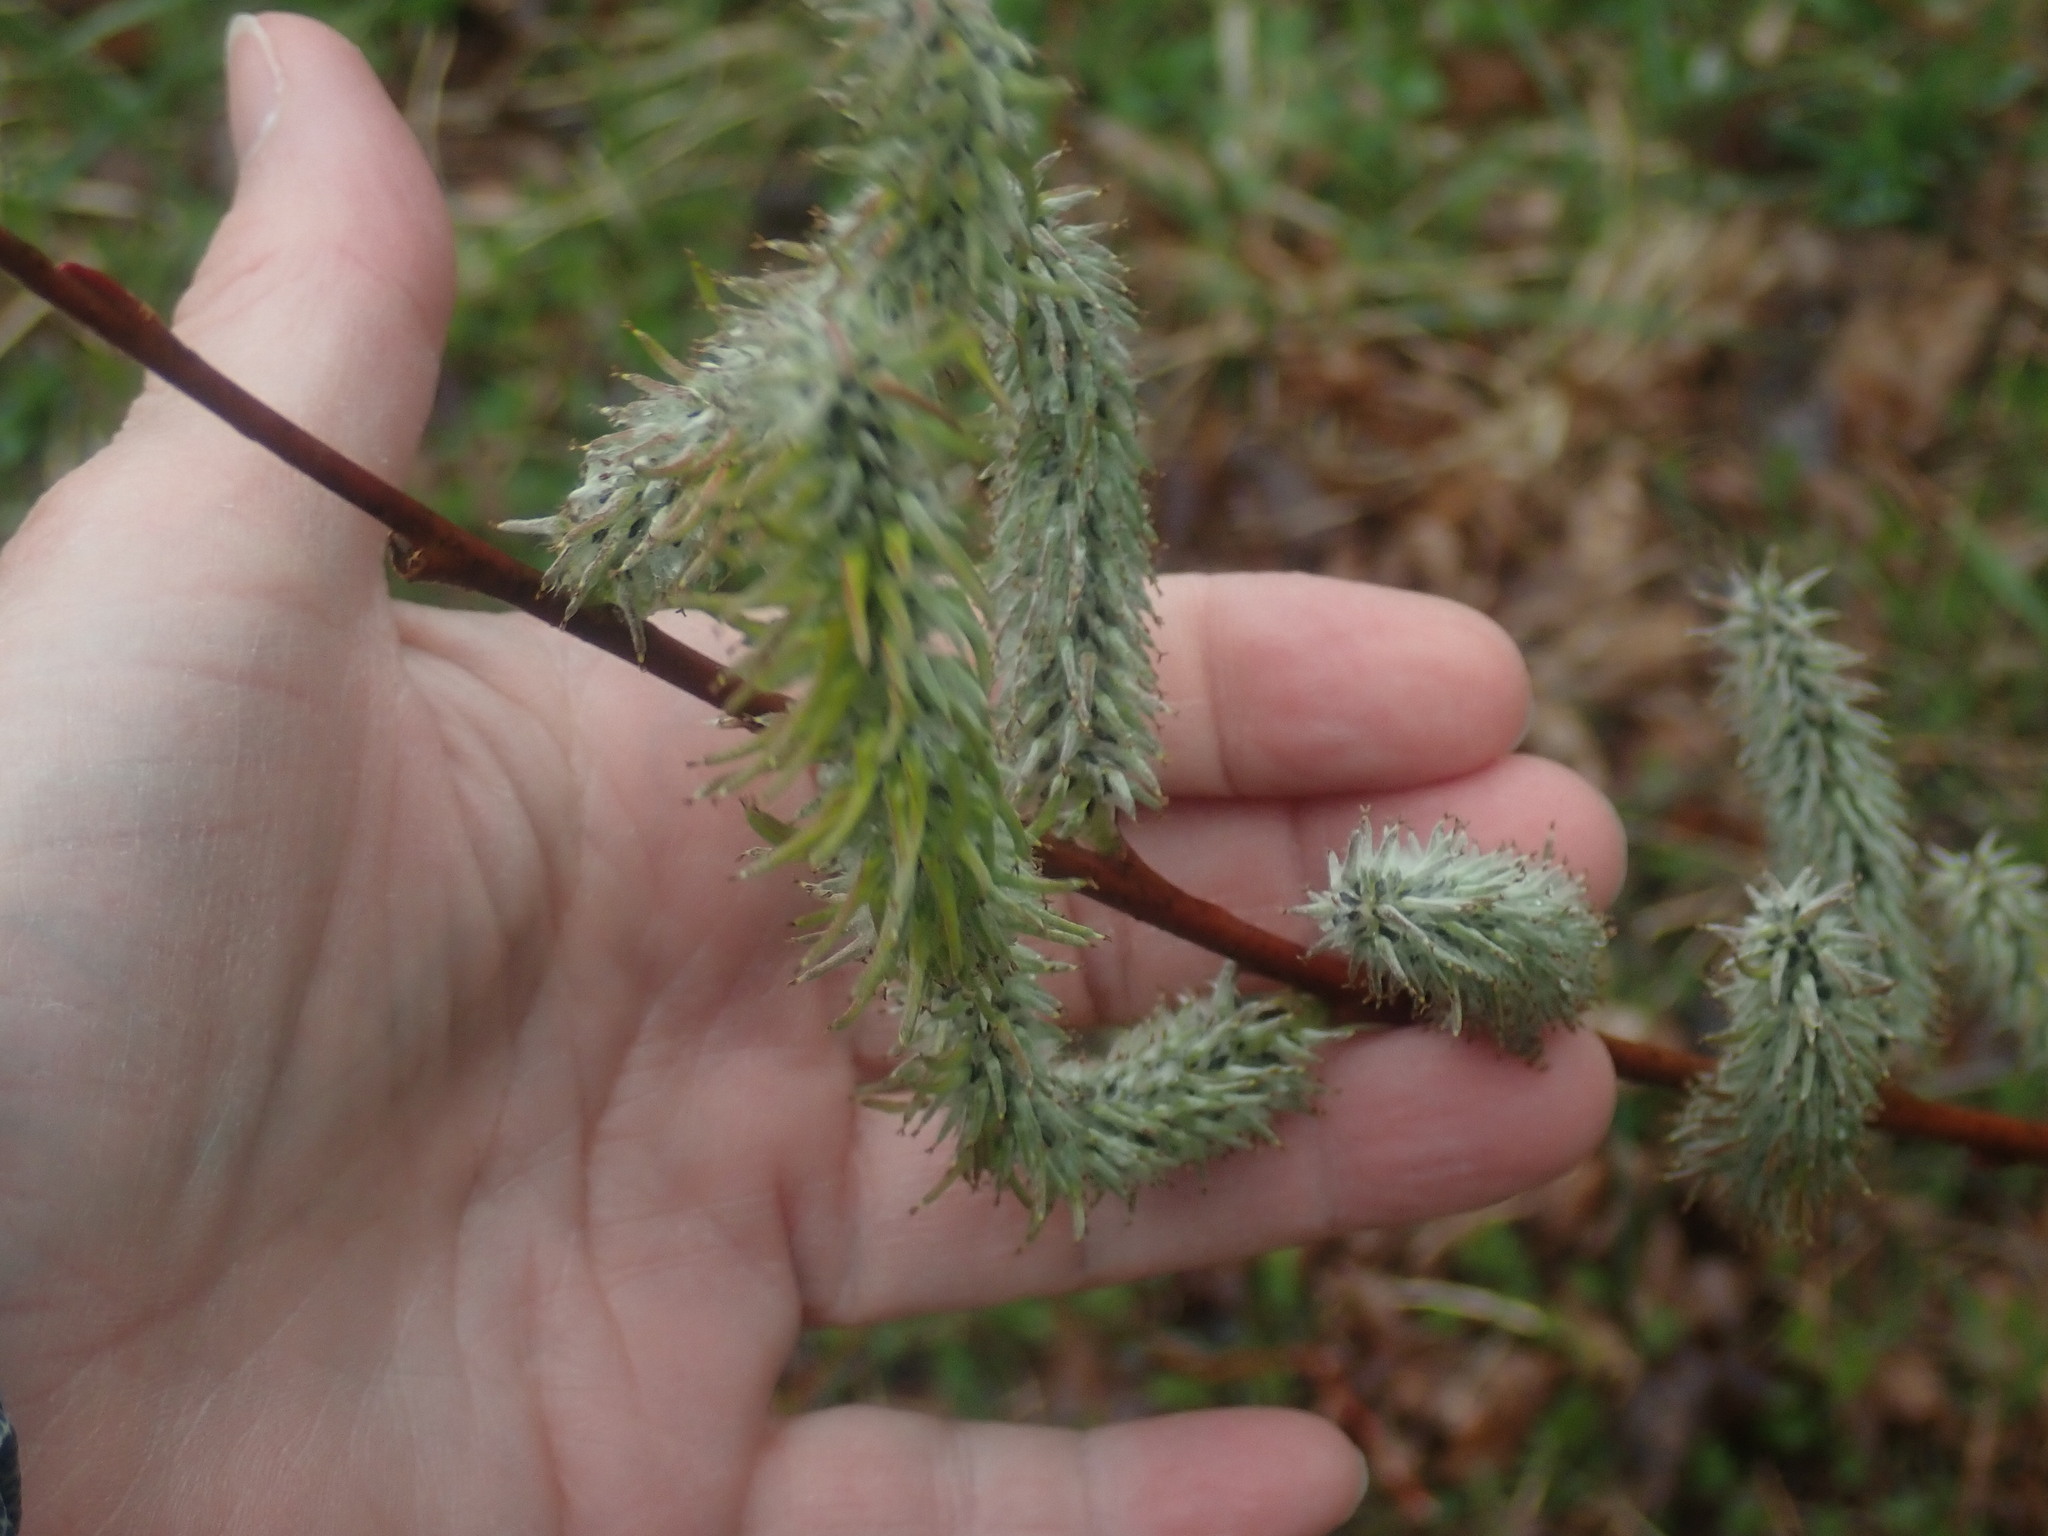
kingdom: Plantae
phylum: Tracheophyta
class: Magnoliopsida
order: Malpighiales
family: Salicaceae
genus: Salix
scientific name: Salix
